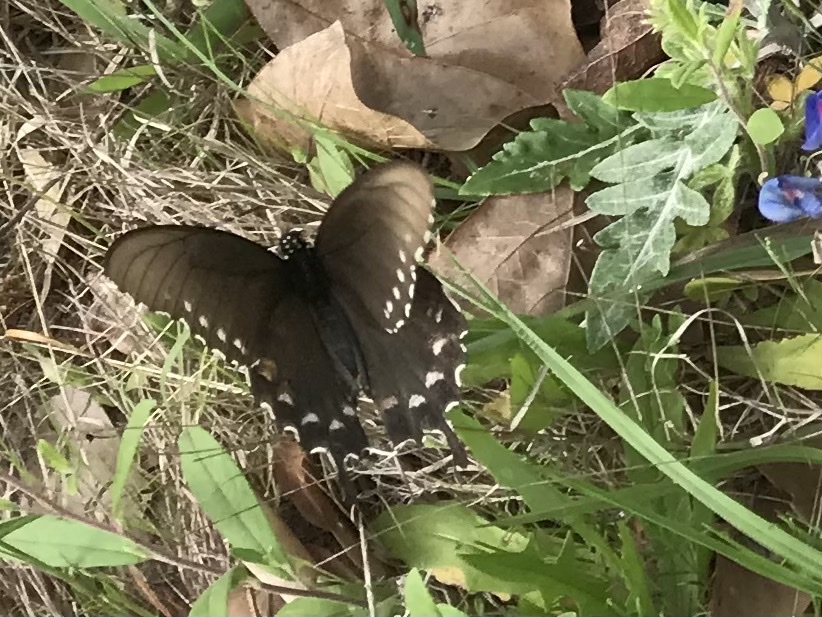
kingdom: Animalia
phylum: Arthropoda
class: Insecta
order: Lepidoptera
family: Papilionidae
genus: Battus
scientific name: Battus philenor
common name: Pipevine swallowtail
